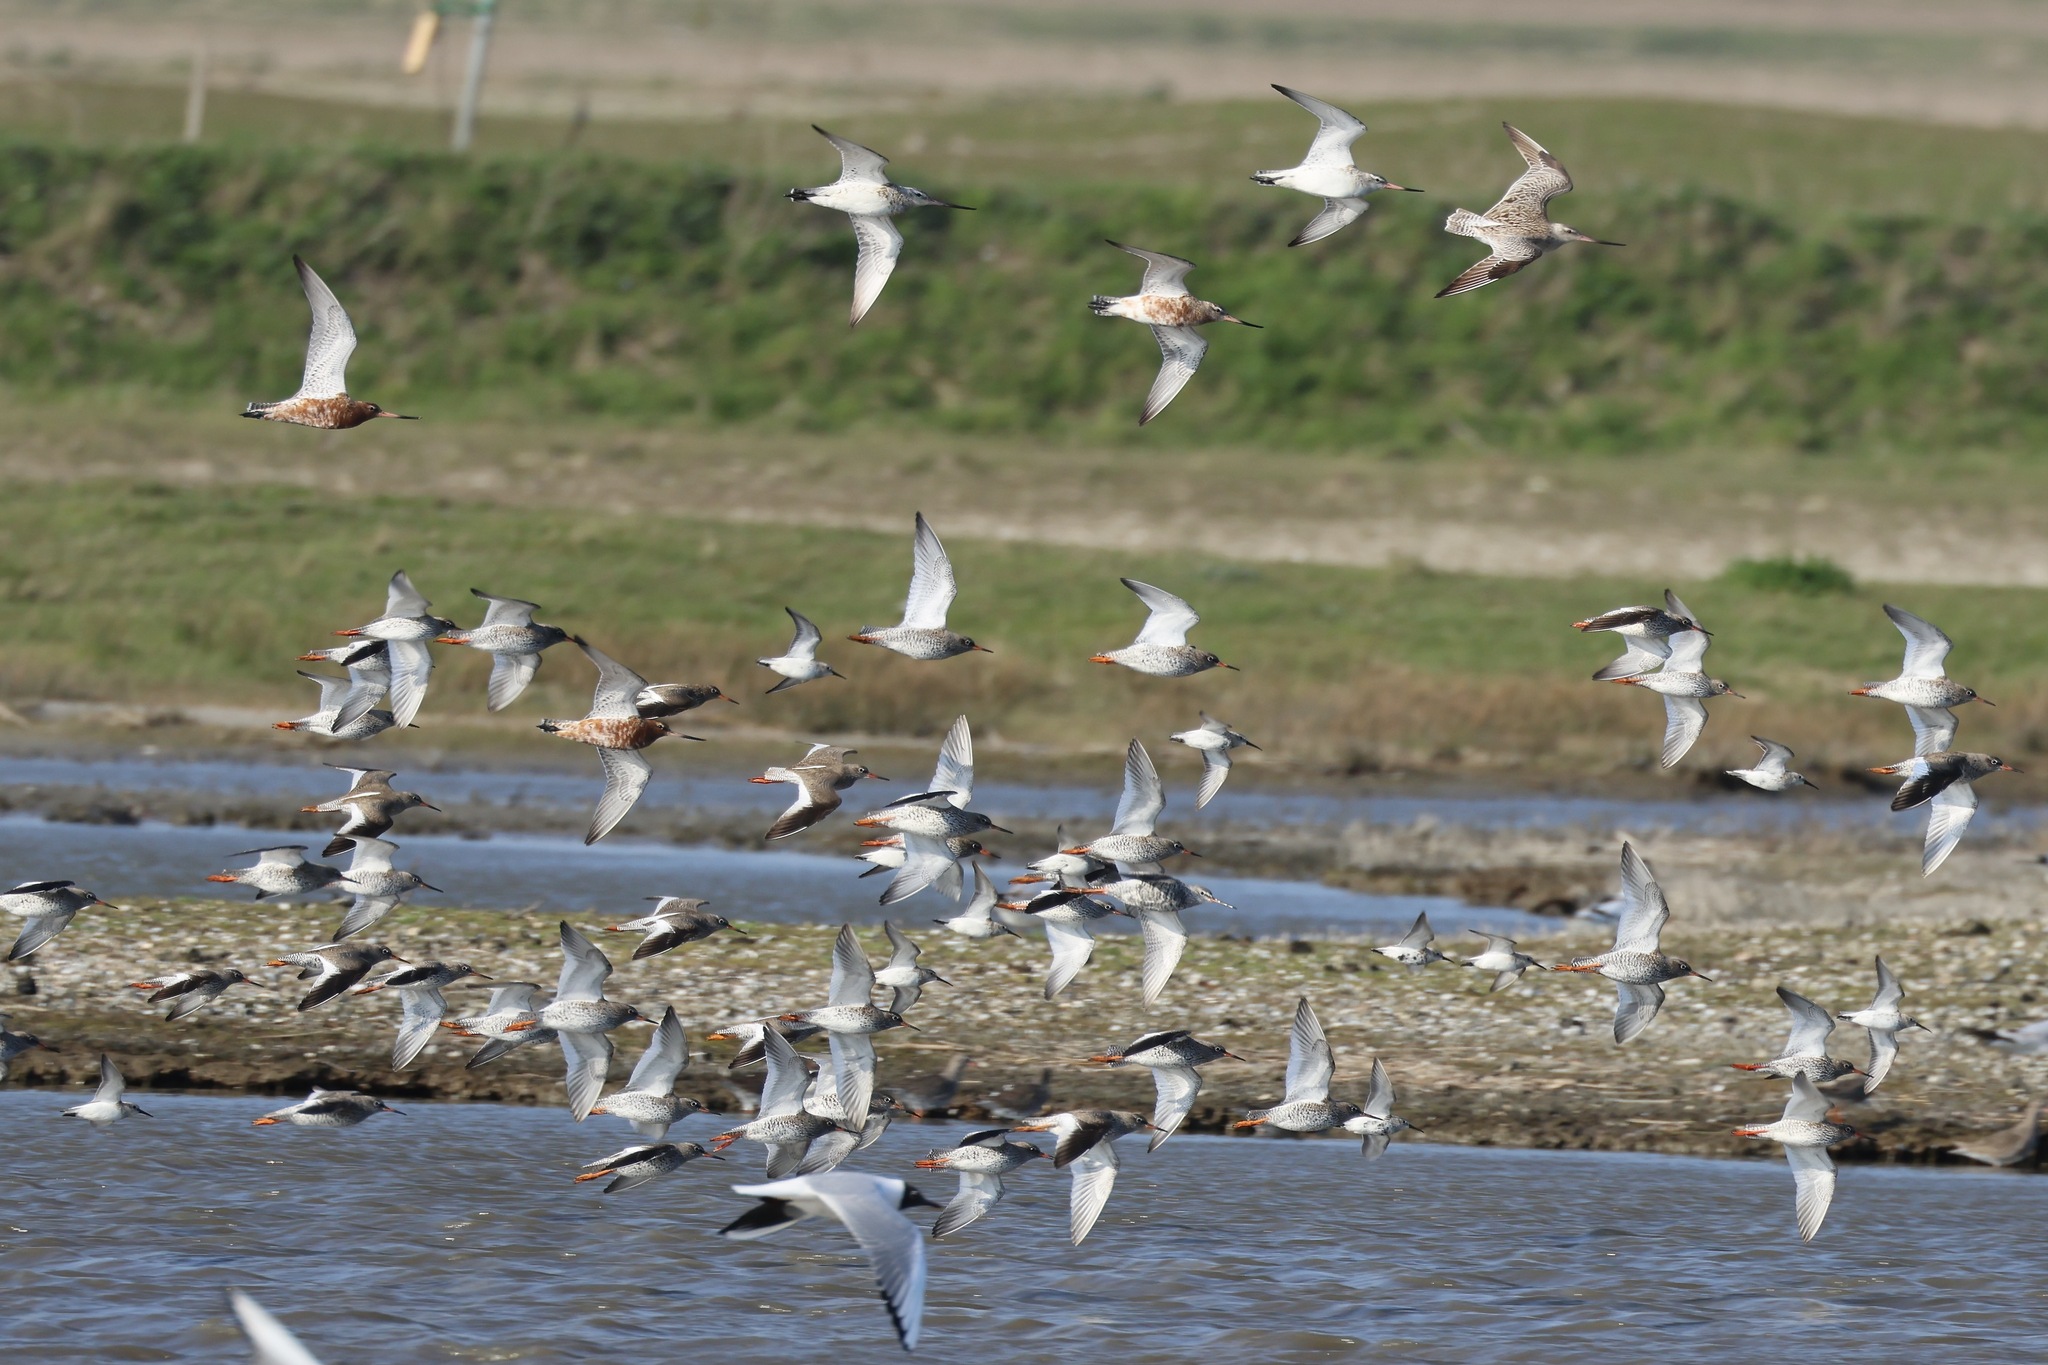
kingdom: Animalia
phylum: Chordata
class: Aves
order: Charadriiformes
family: Scolopacidae
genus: Limosa
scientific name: Limosa lapponica
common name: Bar-tailed godwit
